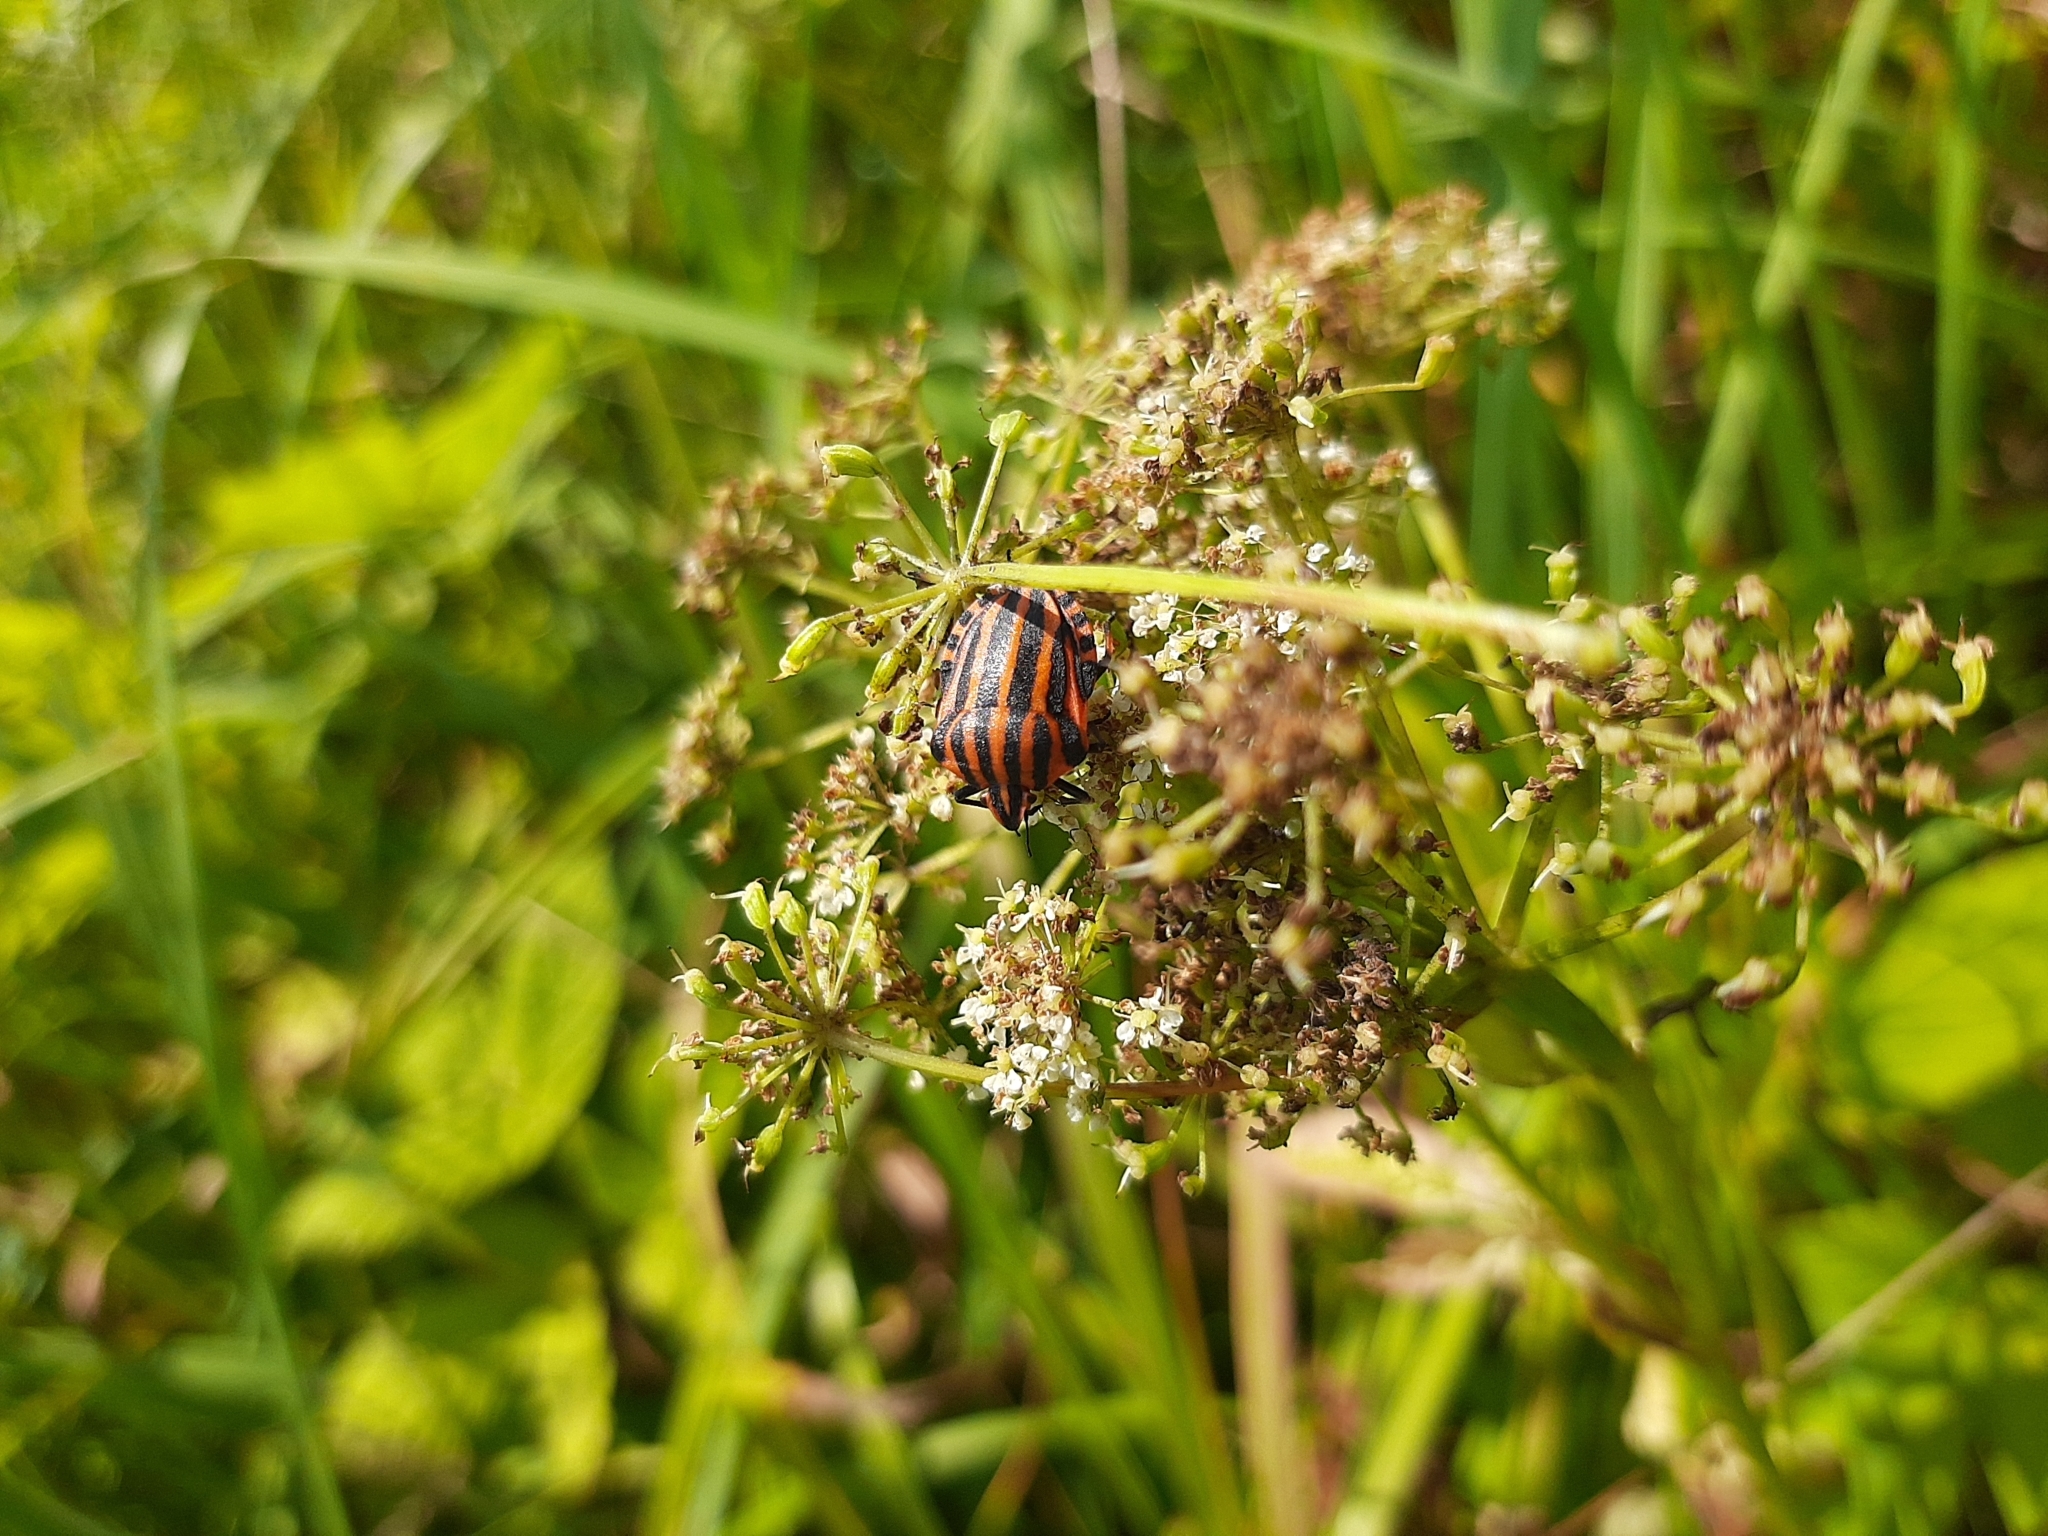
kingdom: Animalia
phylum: Arthropoda
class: Insecta
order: Hemiptera
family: Pentatomidae
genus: Graphosoma
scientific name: Graphosoma italicum
